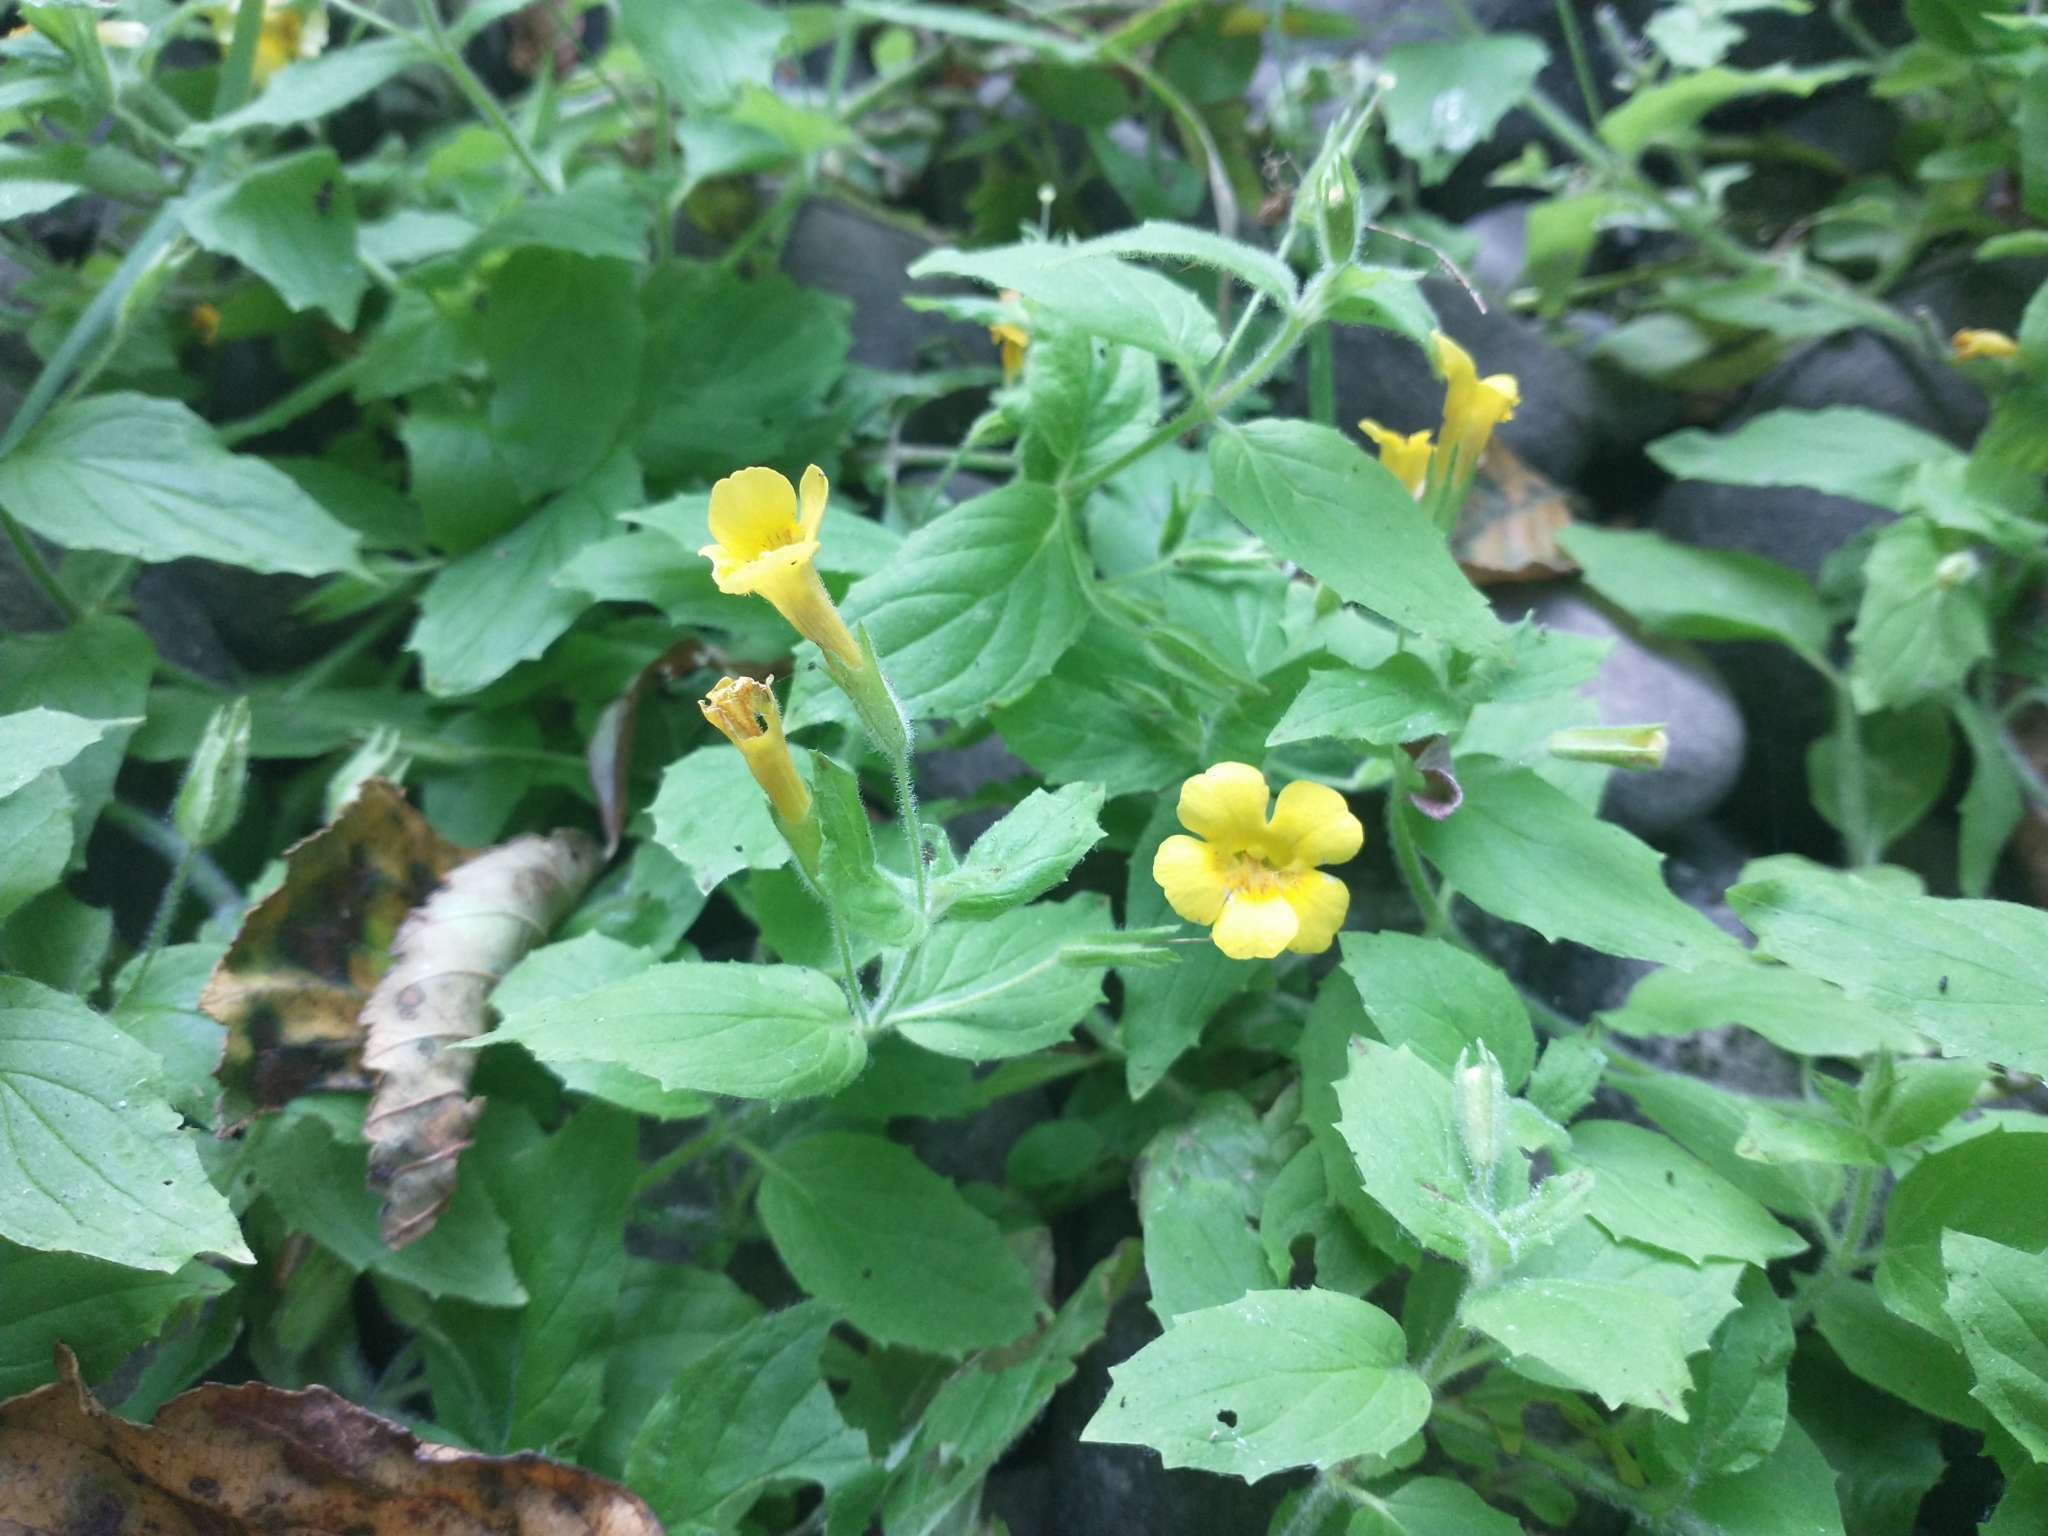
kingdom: Plantae
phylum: Tracheophyta
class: Magnoliopsida
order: Lamiales
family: Phrymaceae
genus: Erythranthe
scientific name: Erythranthe ptilota
